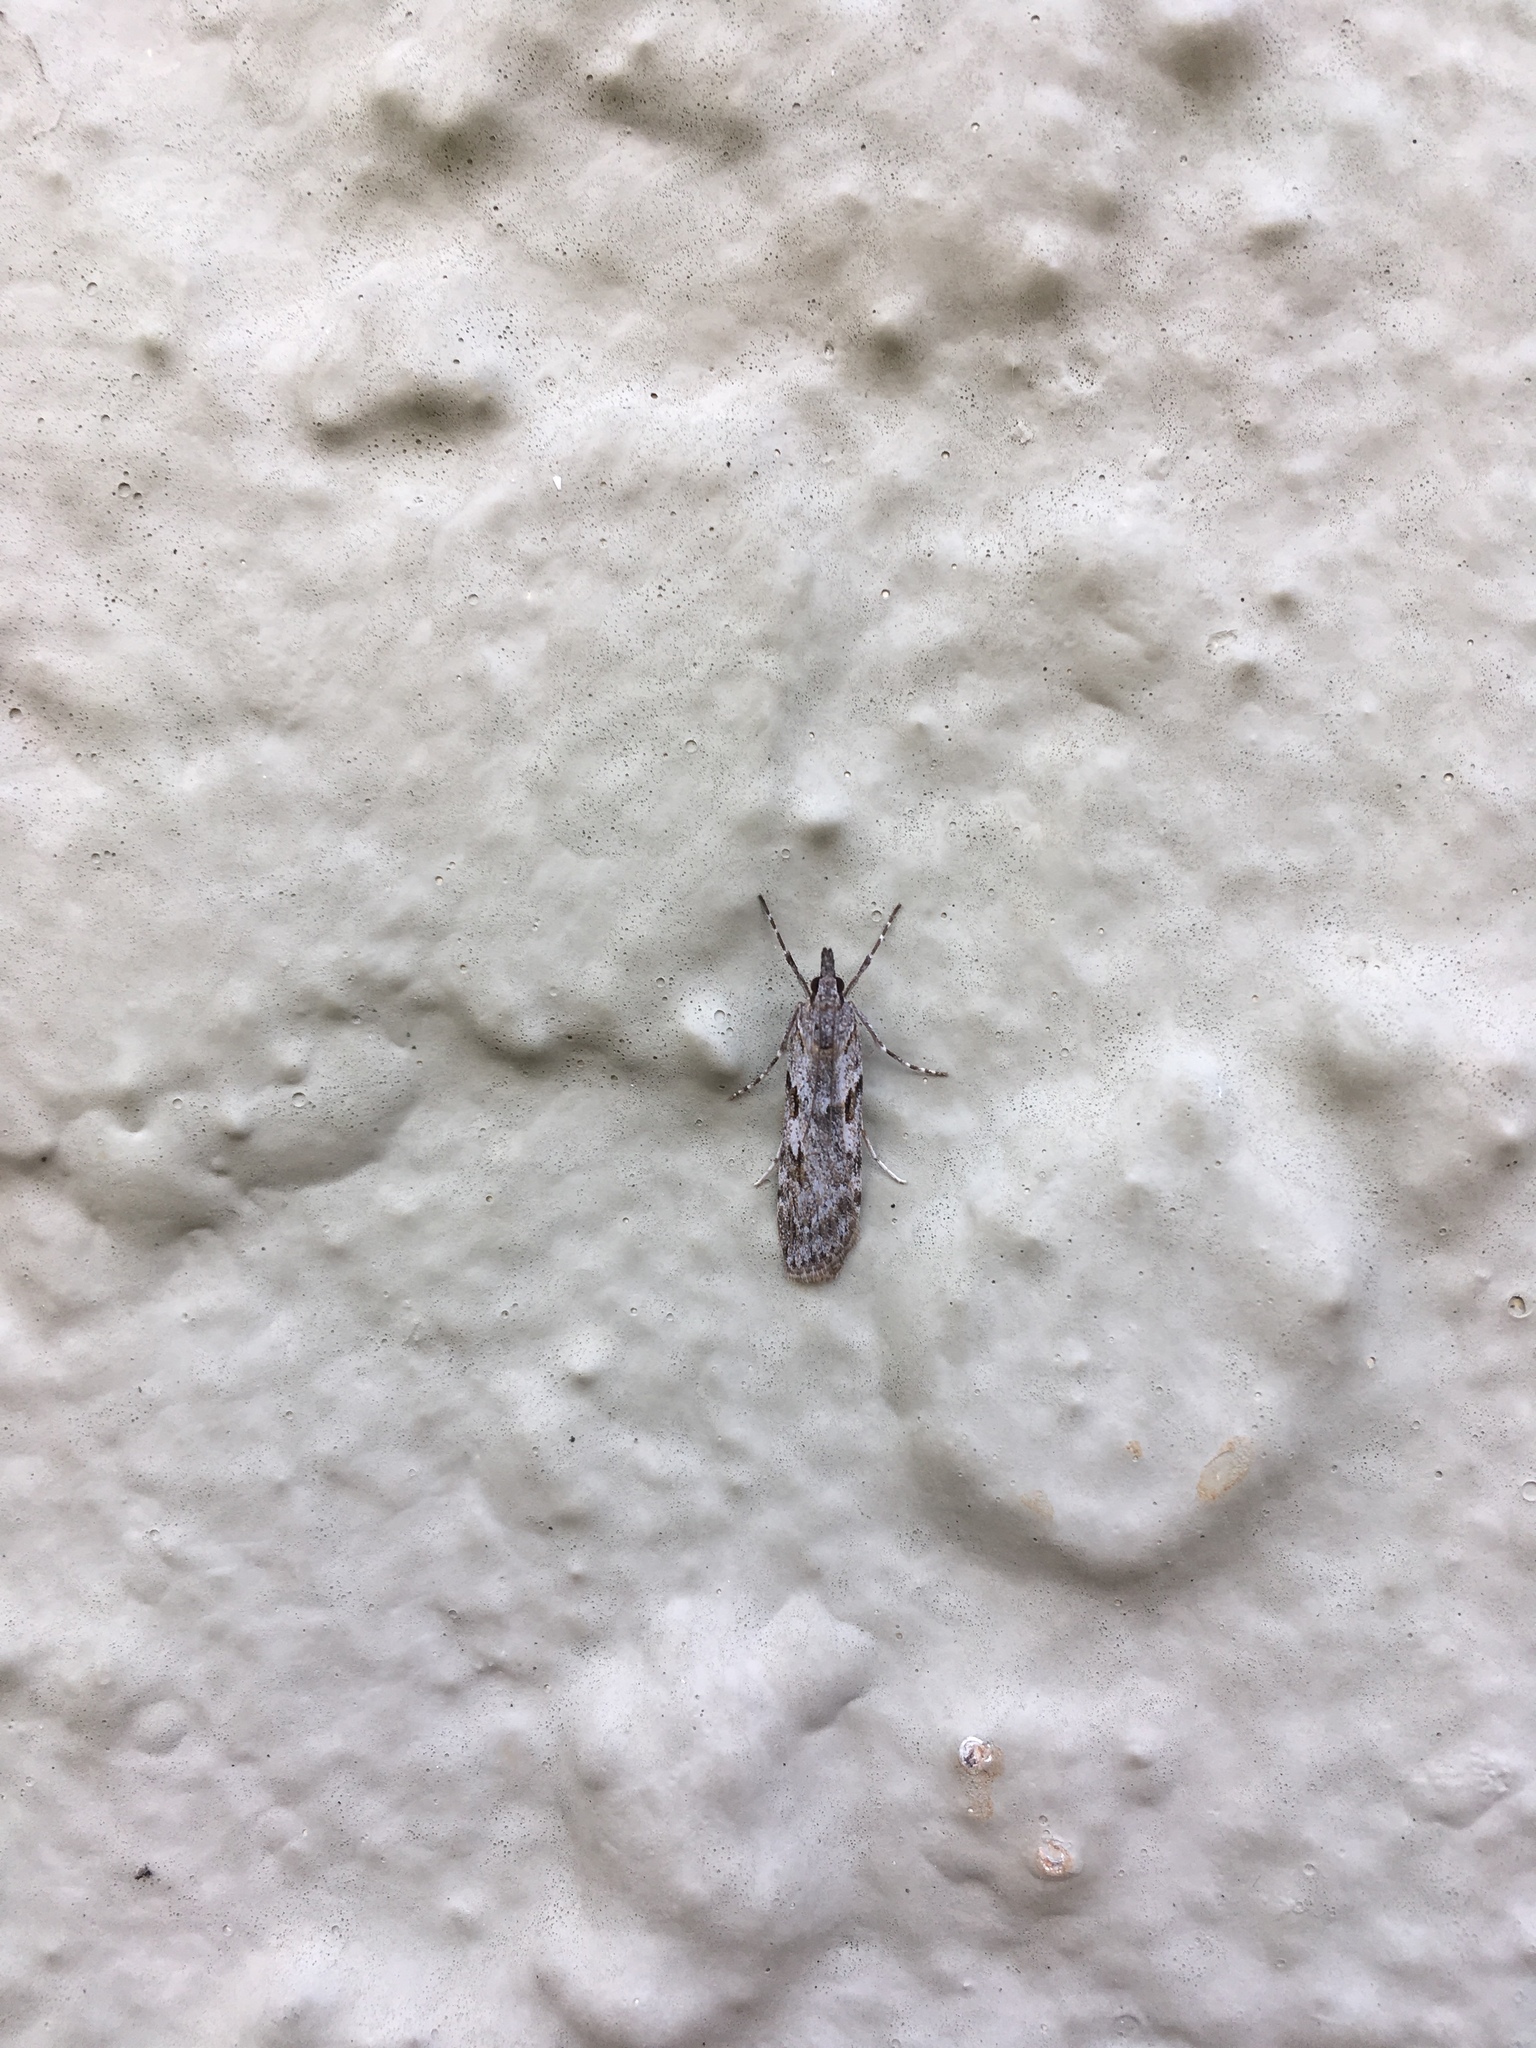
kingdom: Animalia
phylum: Arthropoda
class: Insecta
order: Lepidoptera
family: Crambidae
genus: Scoparia
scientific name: Scoparia halopis
